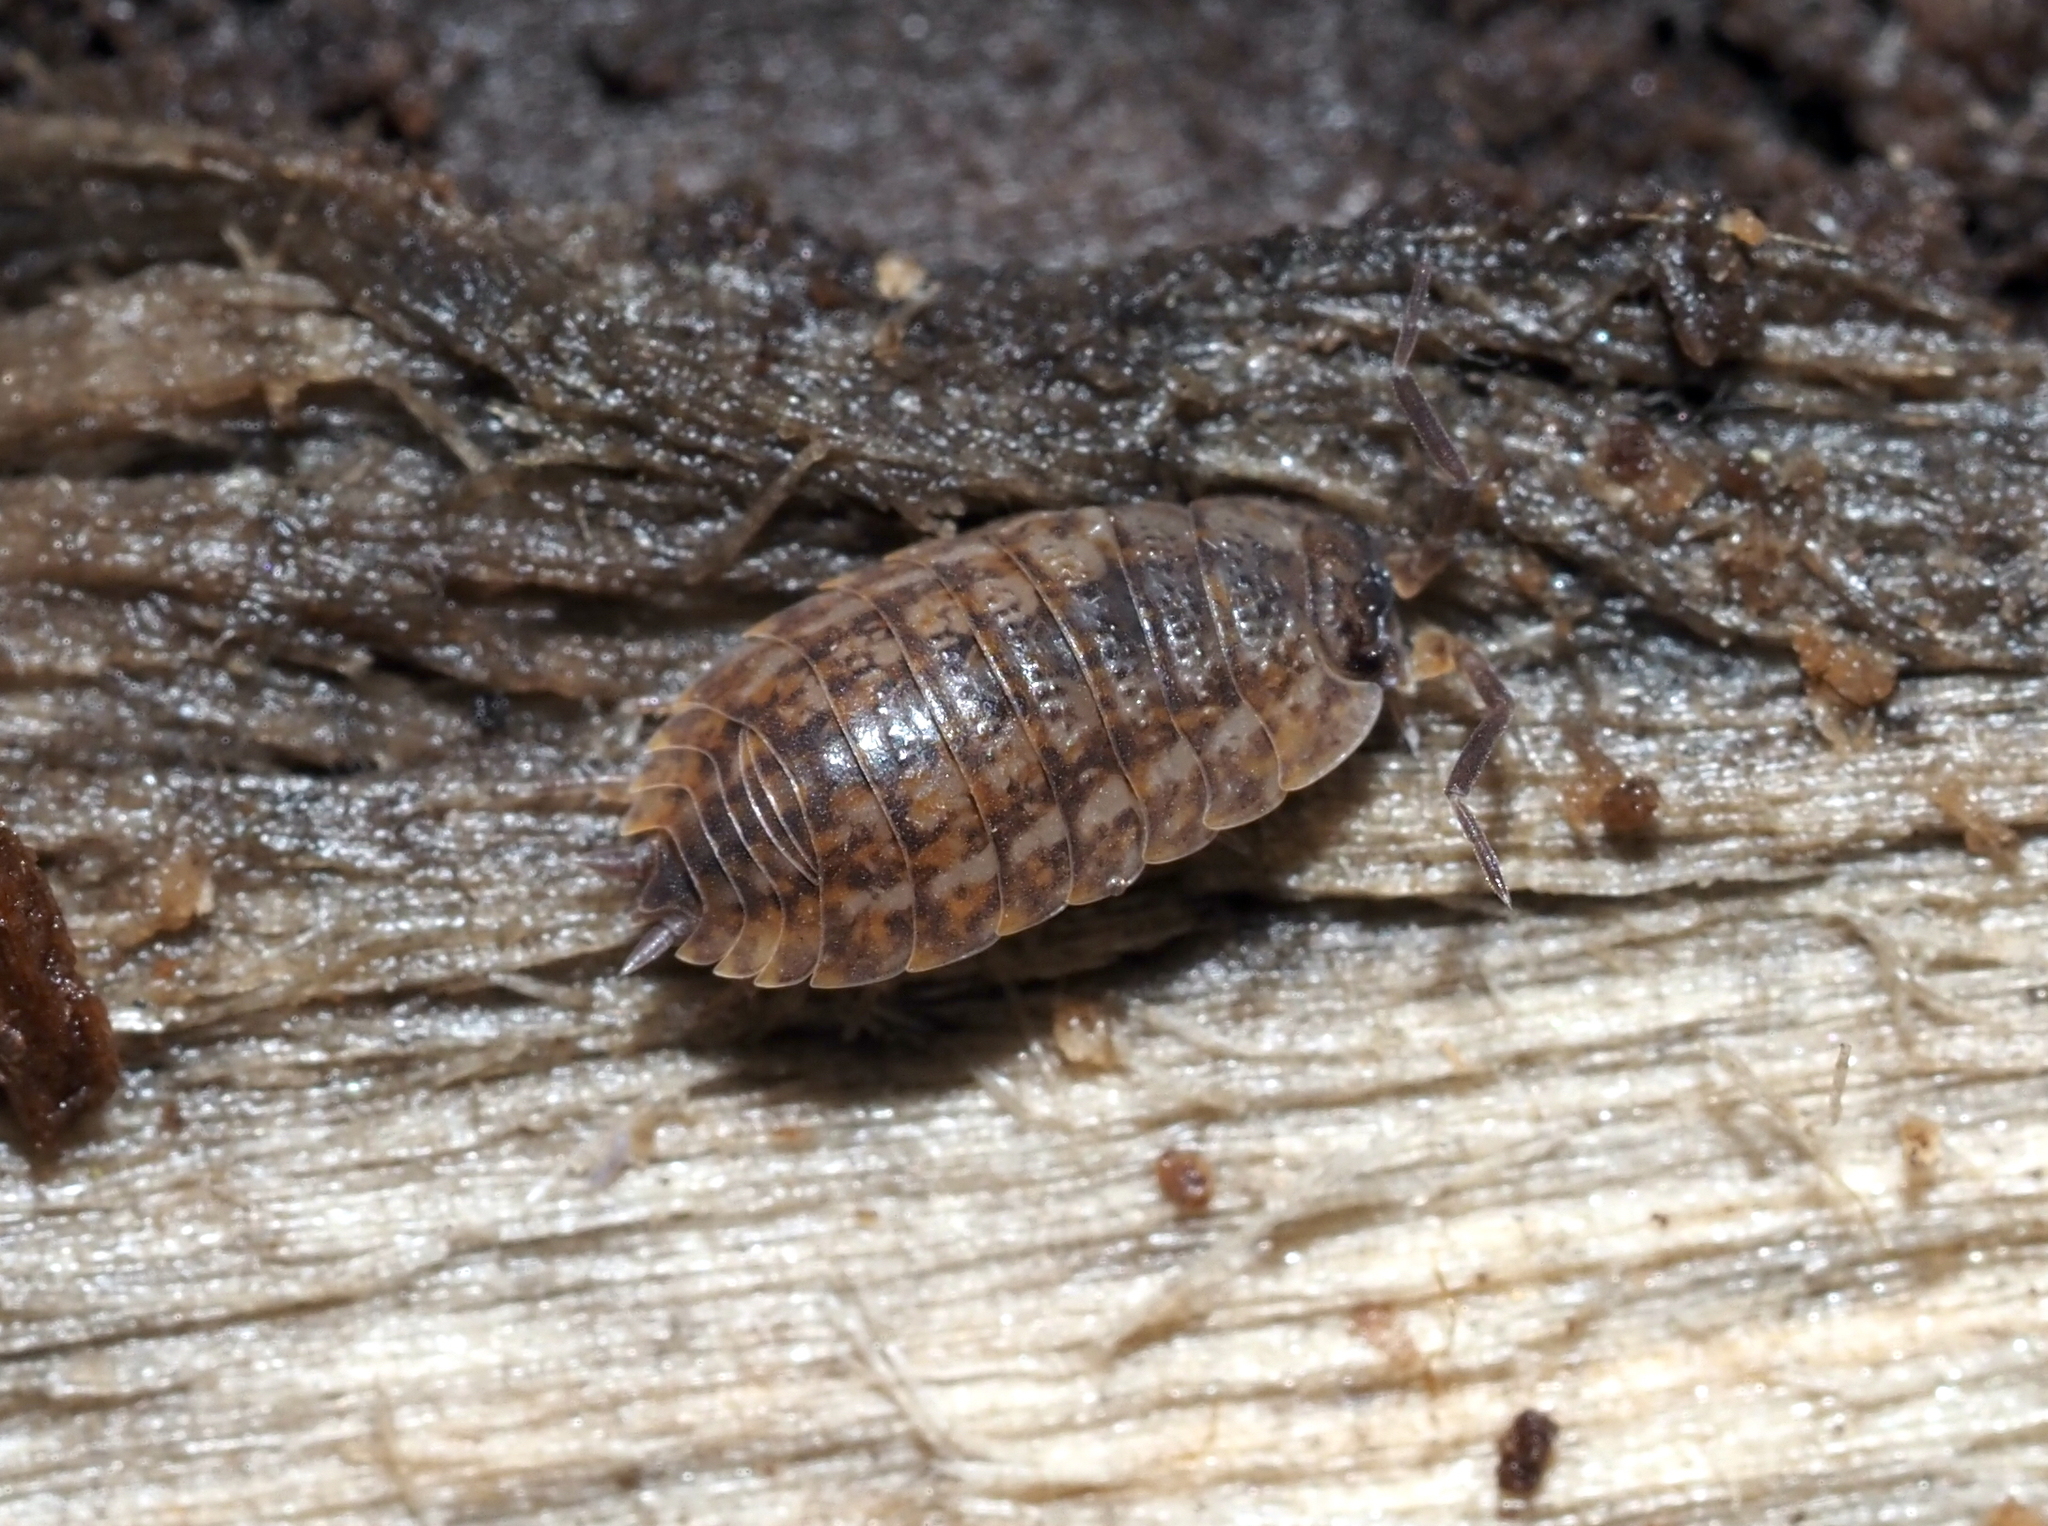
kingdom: Animalia
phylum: Arthropoda
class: Malacostraca
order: Isopoda
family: Trachelipodidae
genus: Trachelipus
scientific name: Trachelipus rathkii
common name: Isopod
